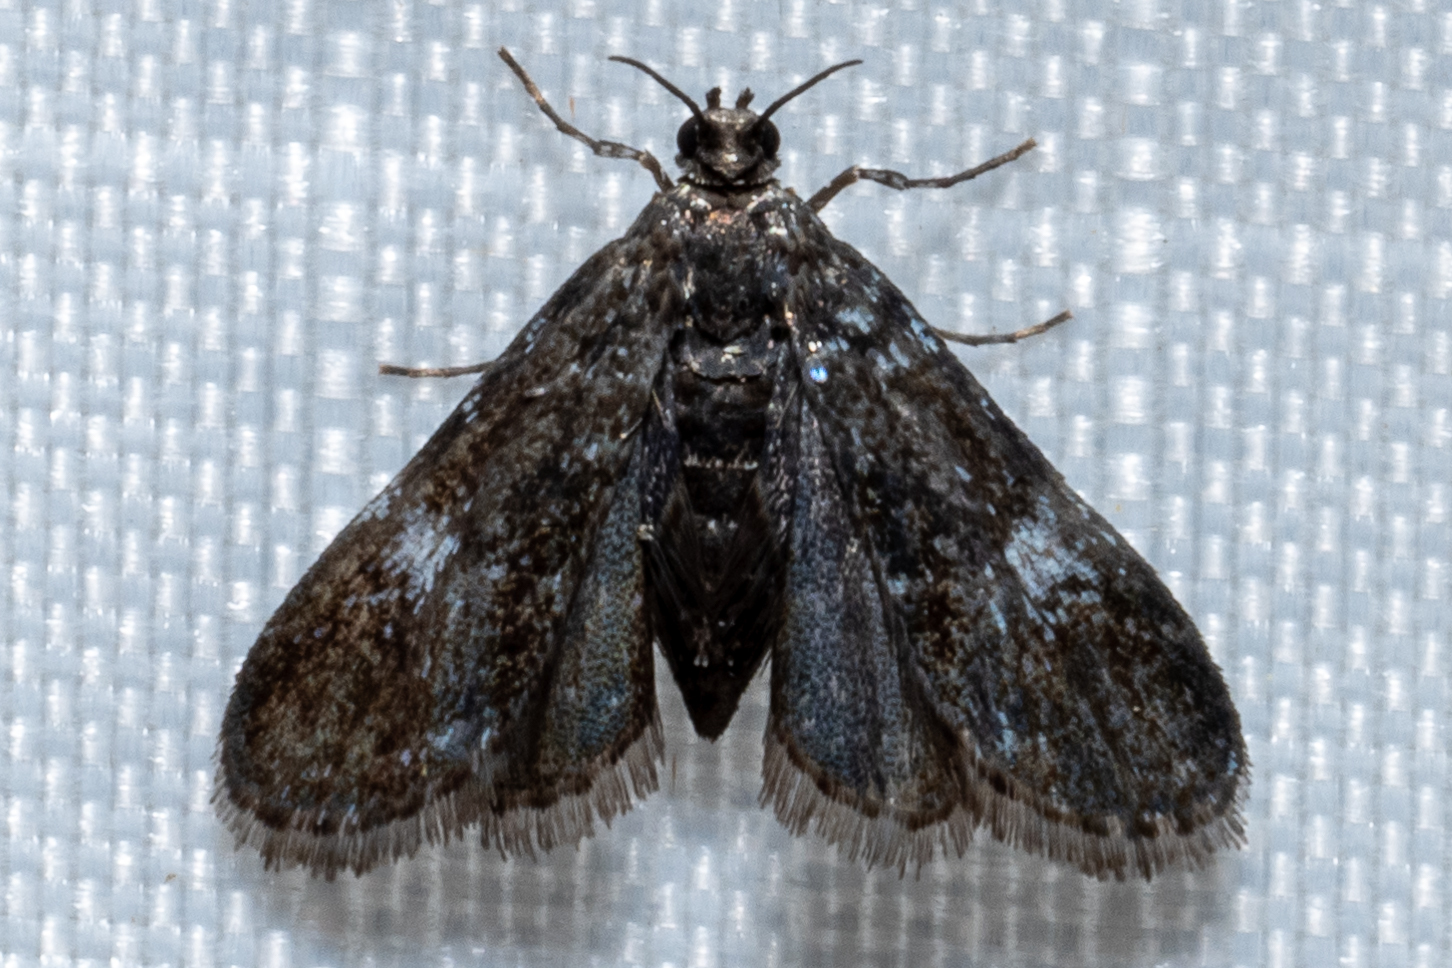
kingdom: Animalia
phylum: Arthropoda
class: Insecta
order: Lepidoptera
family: Crambidae
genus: Elophila
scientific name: Elophila tinealis
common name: Black duckweed moth
